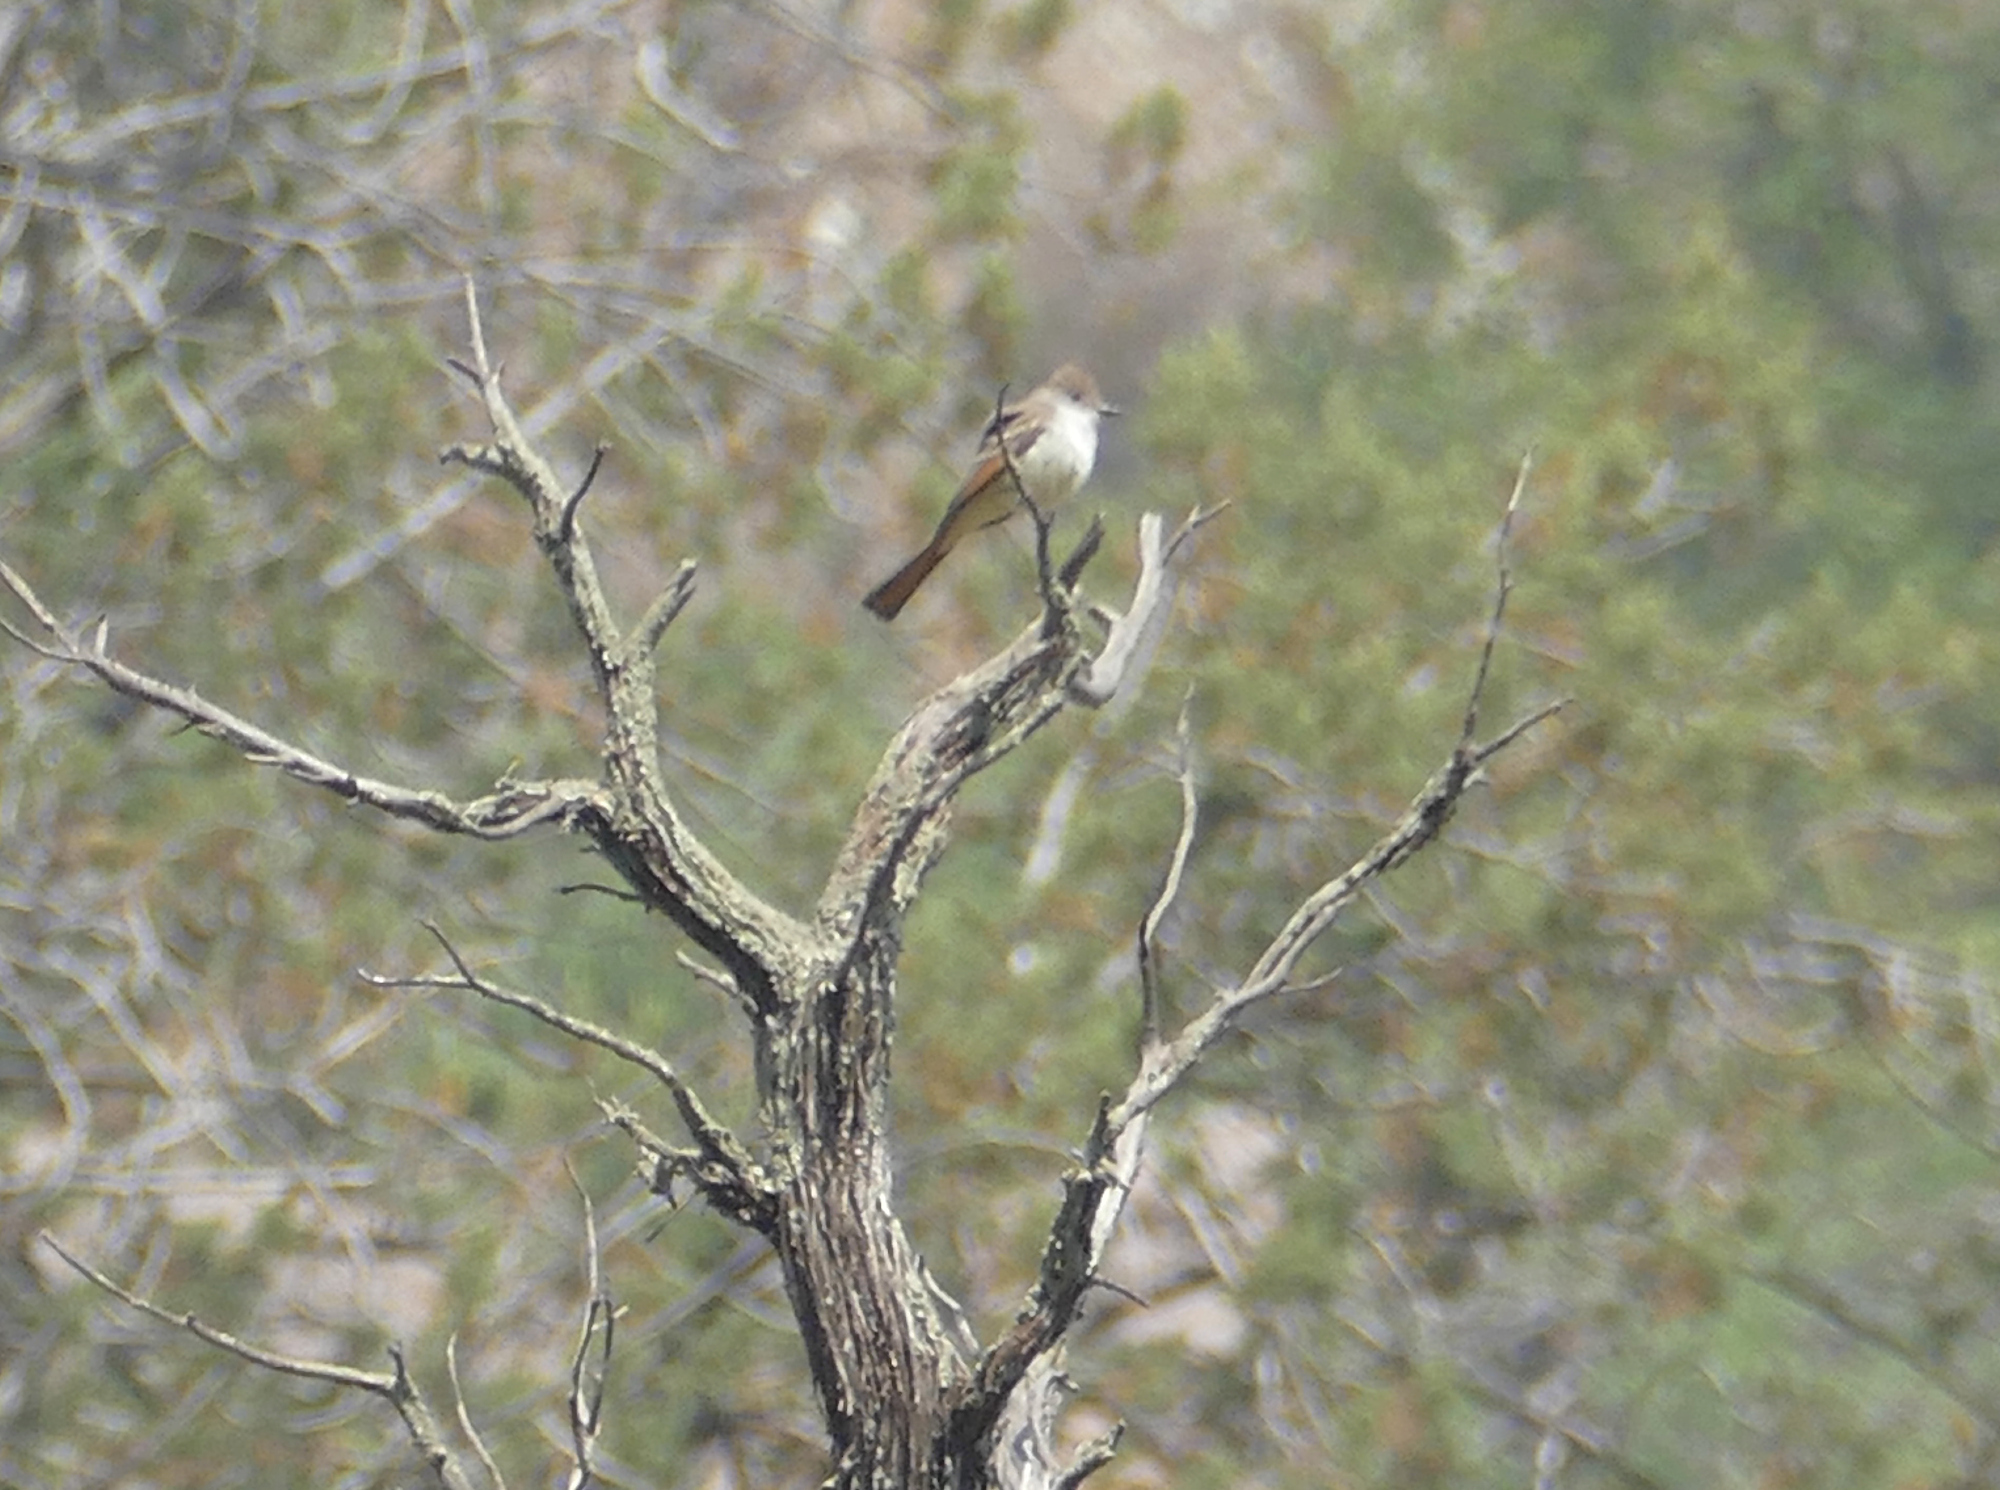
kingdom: Animalia
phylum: Chordata
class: Aves
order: Passeriformes
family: Tyrannidae
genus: Myiarchus
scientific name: Myiarchus cinerascens
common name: Ash-throated flycatcher
